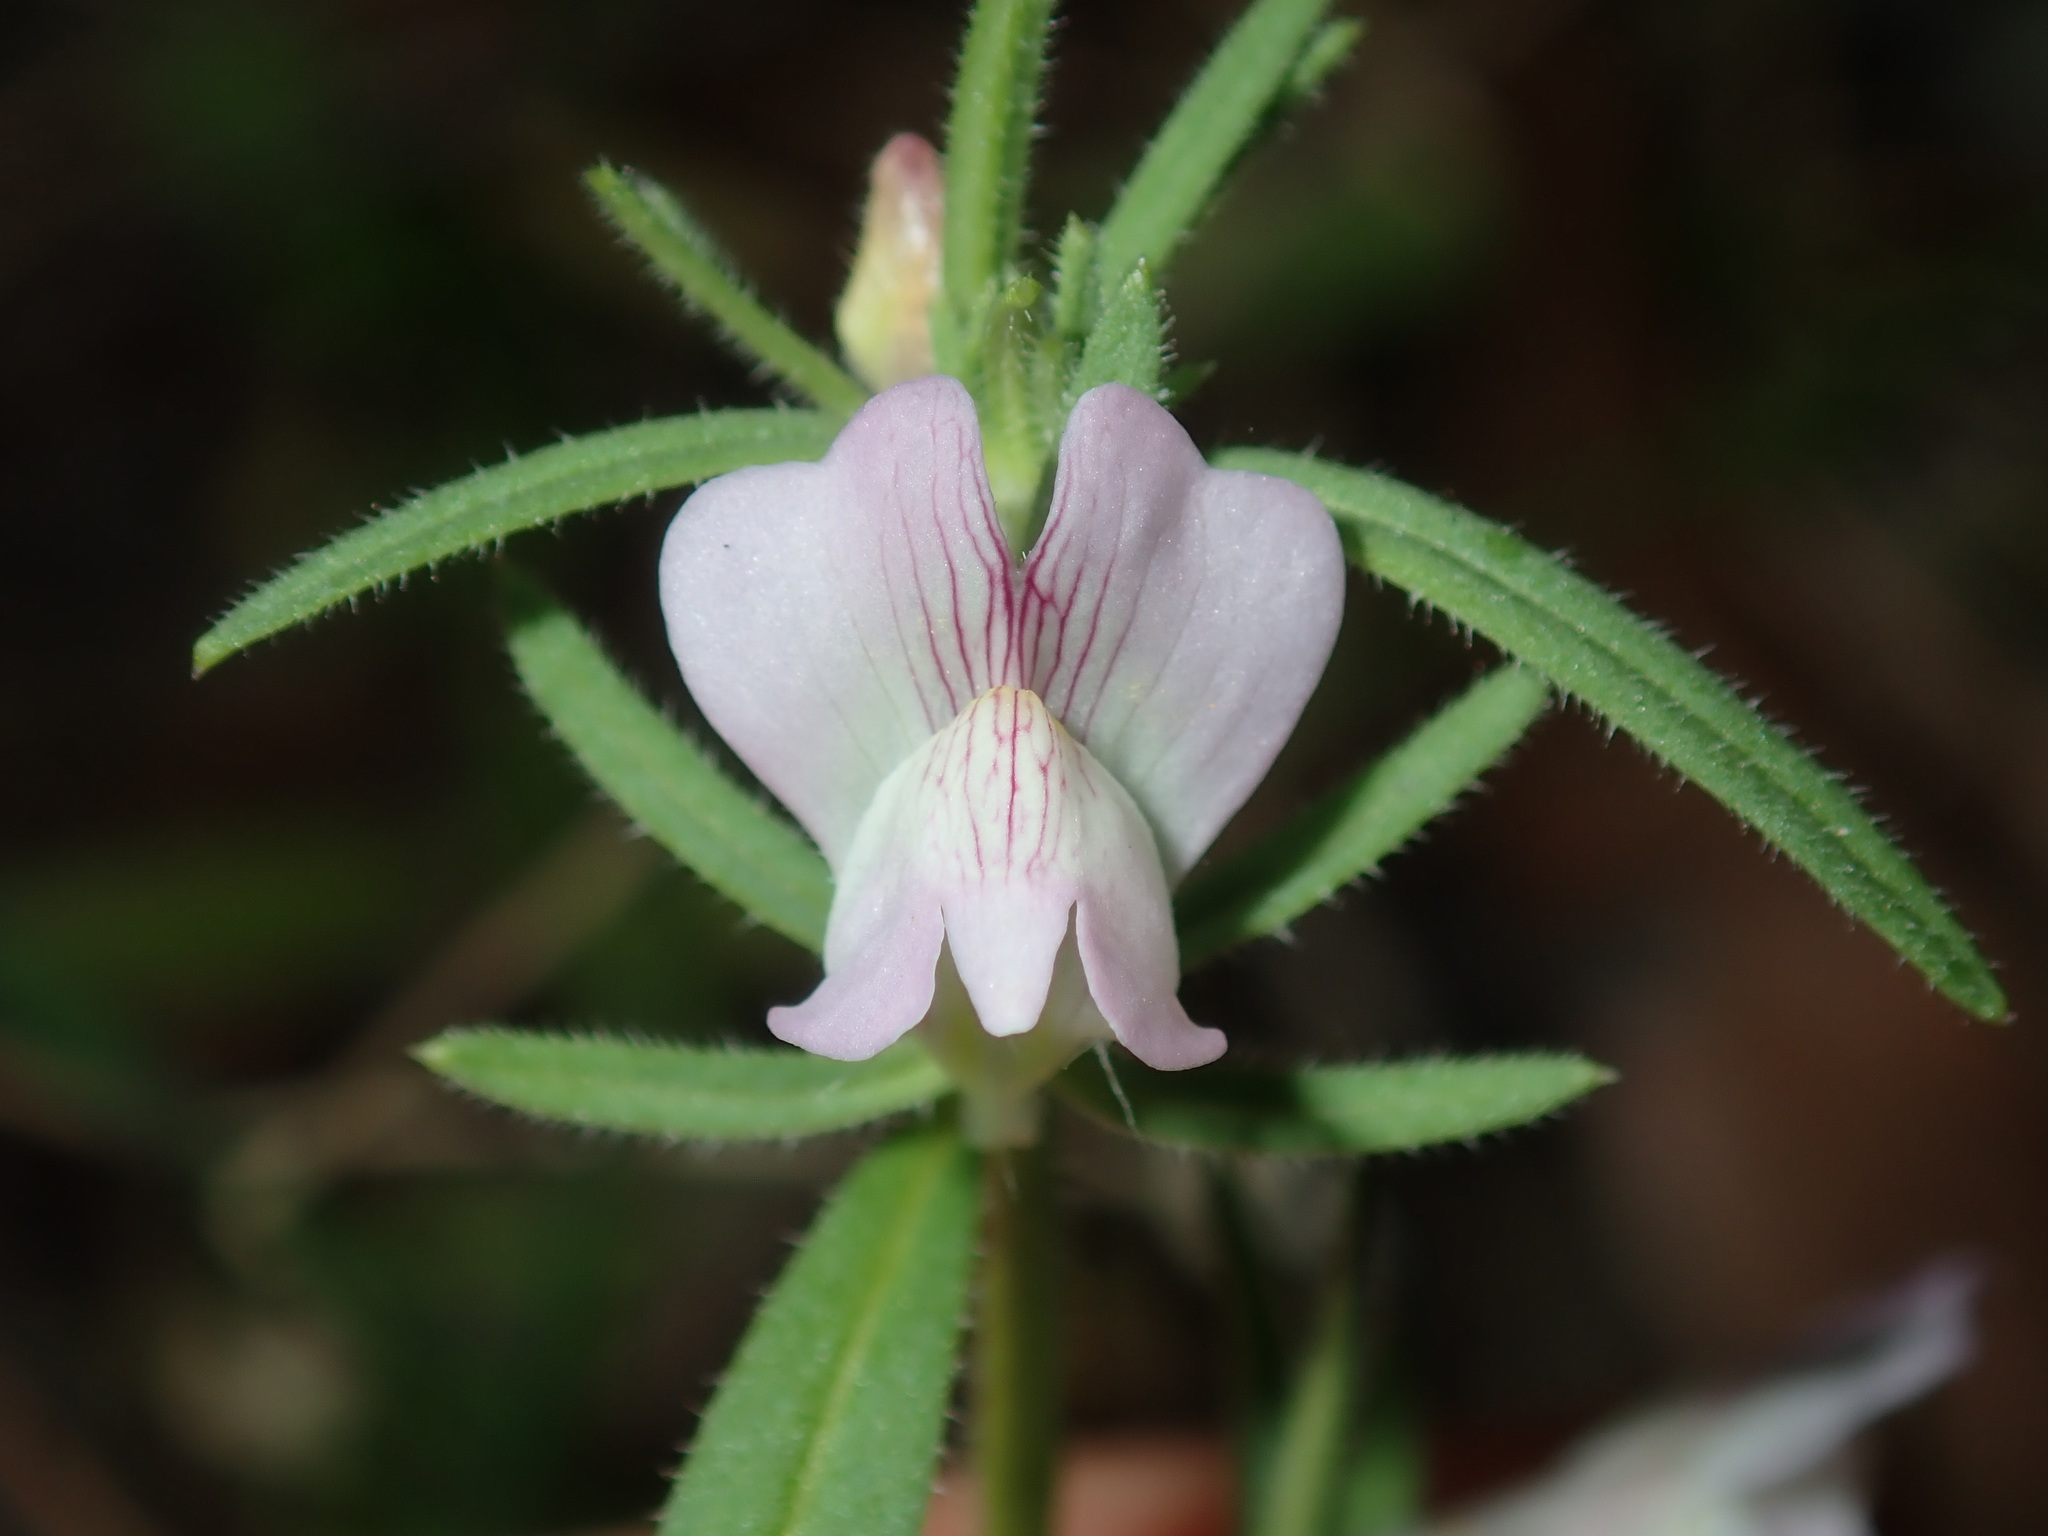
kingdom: Plantae
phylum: Tracheophyta
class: Magnoliopsida
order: Lamiales
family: Plantaginaceae
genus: Misopates
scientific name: Misopates orontium
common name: Weasel's-snout
